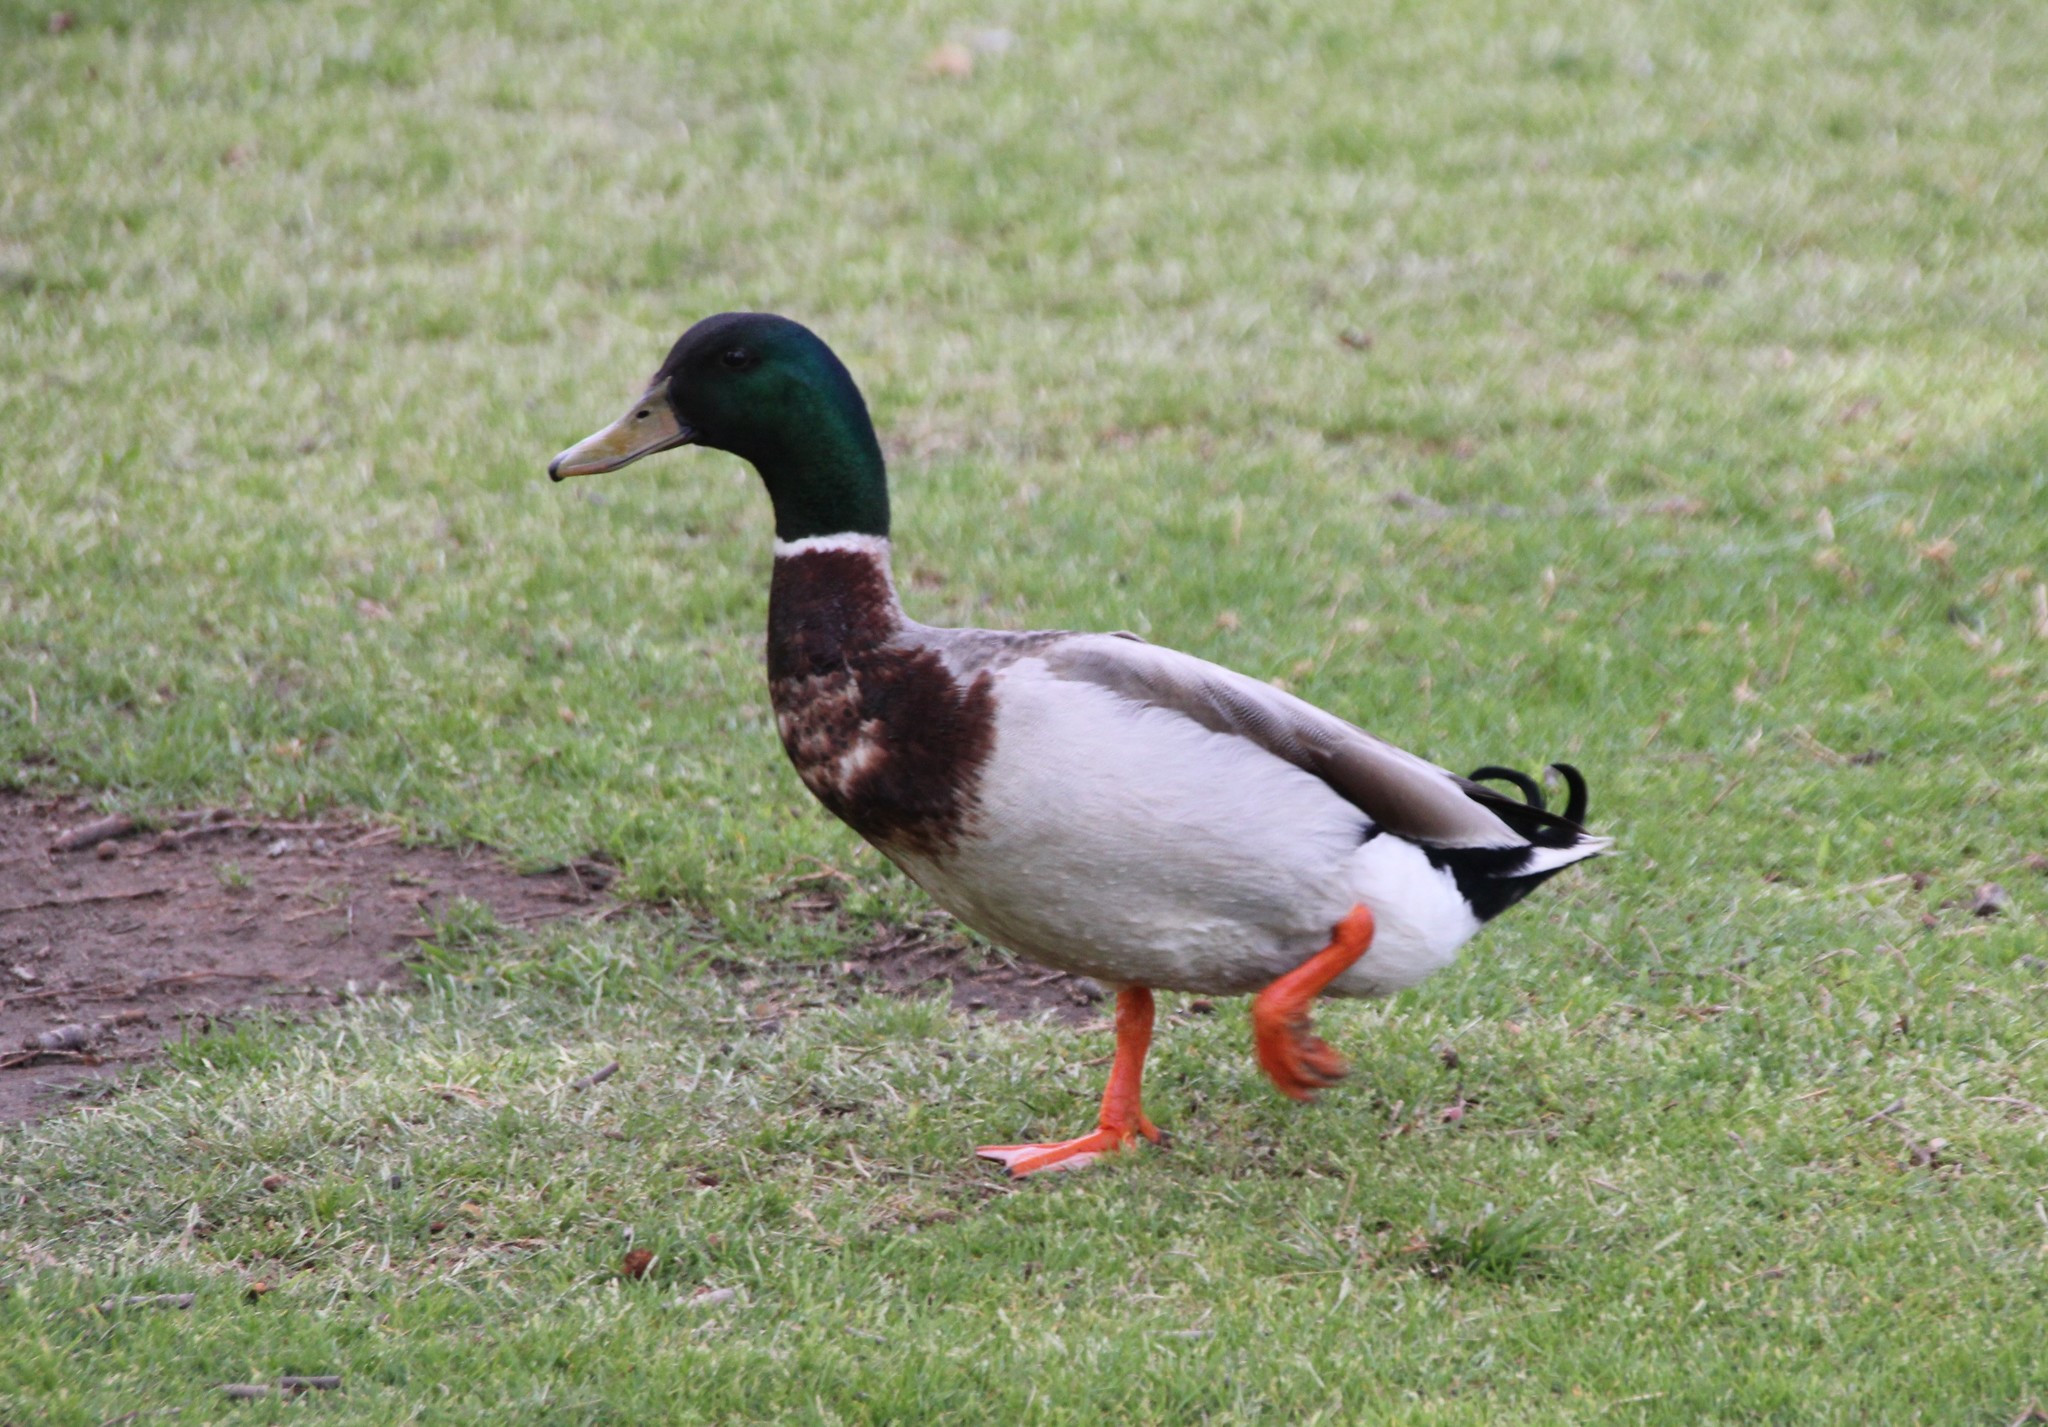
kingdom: Animalia
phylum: Chordata
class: Aves
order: Anseriformes
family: Anatidae
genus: Anas
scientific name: Anas platyrhynchos
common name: Mallard
